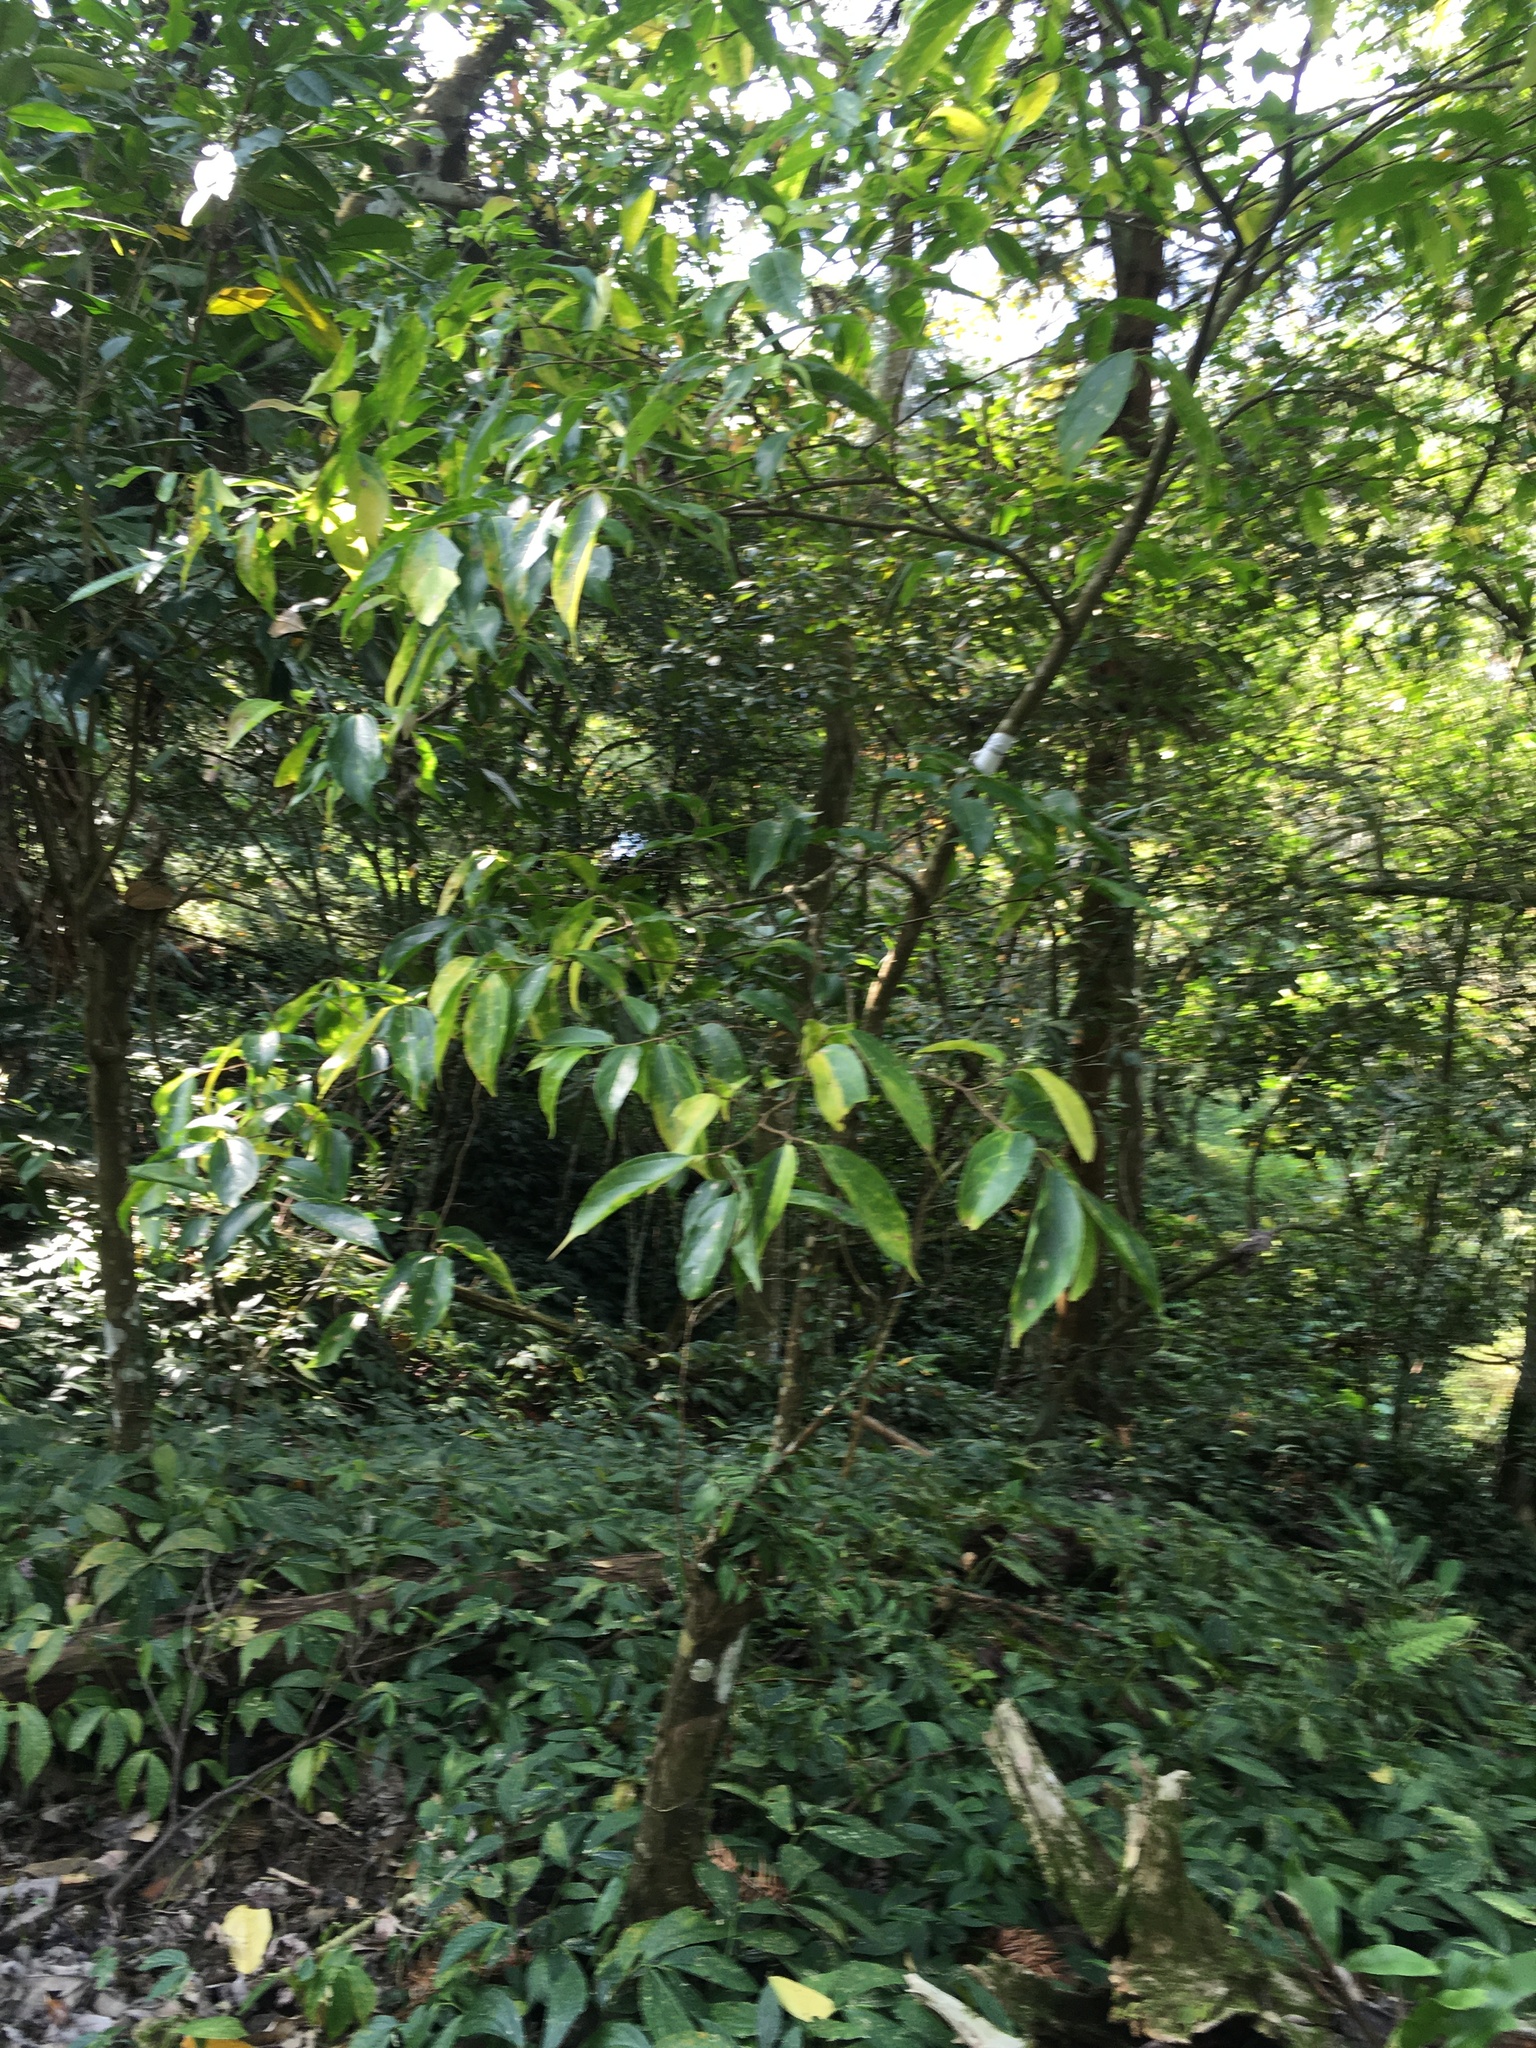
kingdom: Plantae
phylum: Tracheophyta
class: Magnoliopsida
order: Rosales
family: Cannabaceae
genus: Celtis
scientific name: Celtis tetrandra
